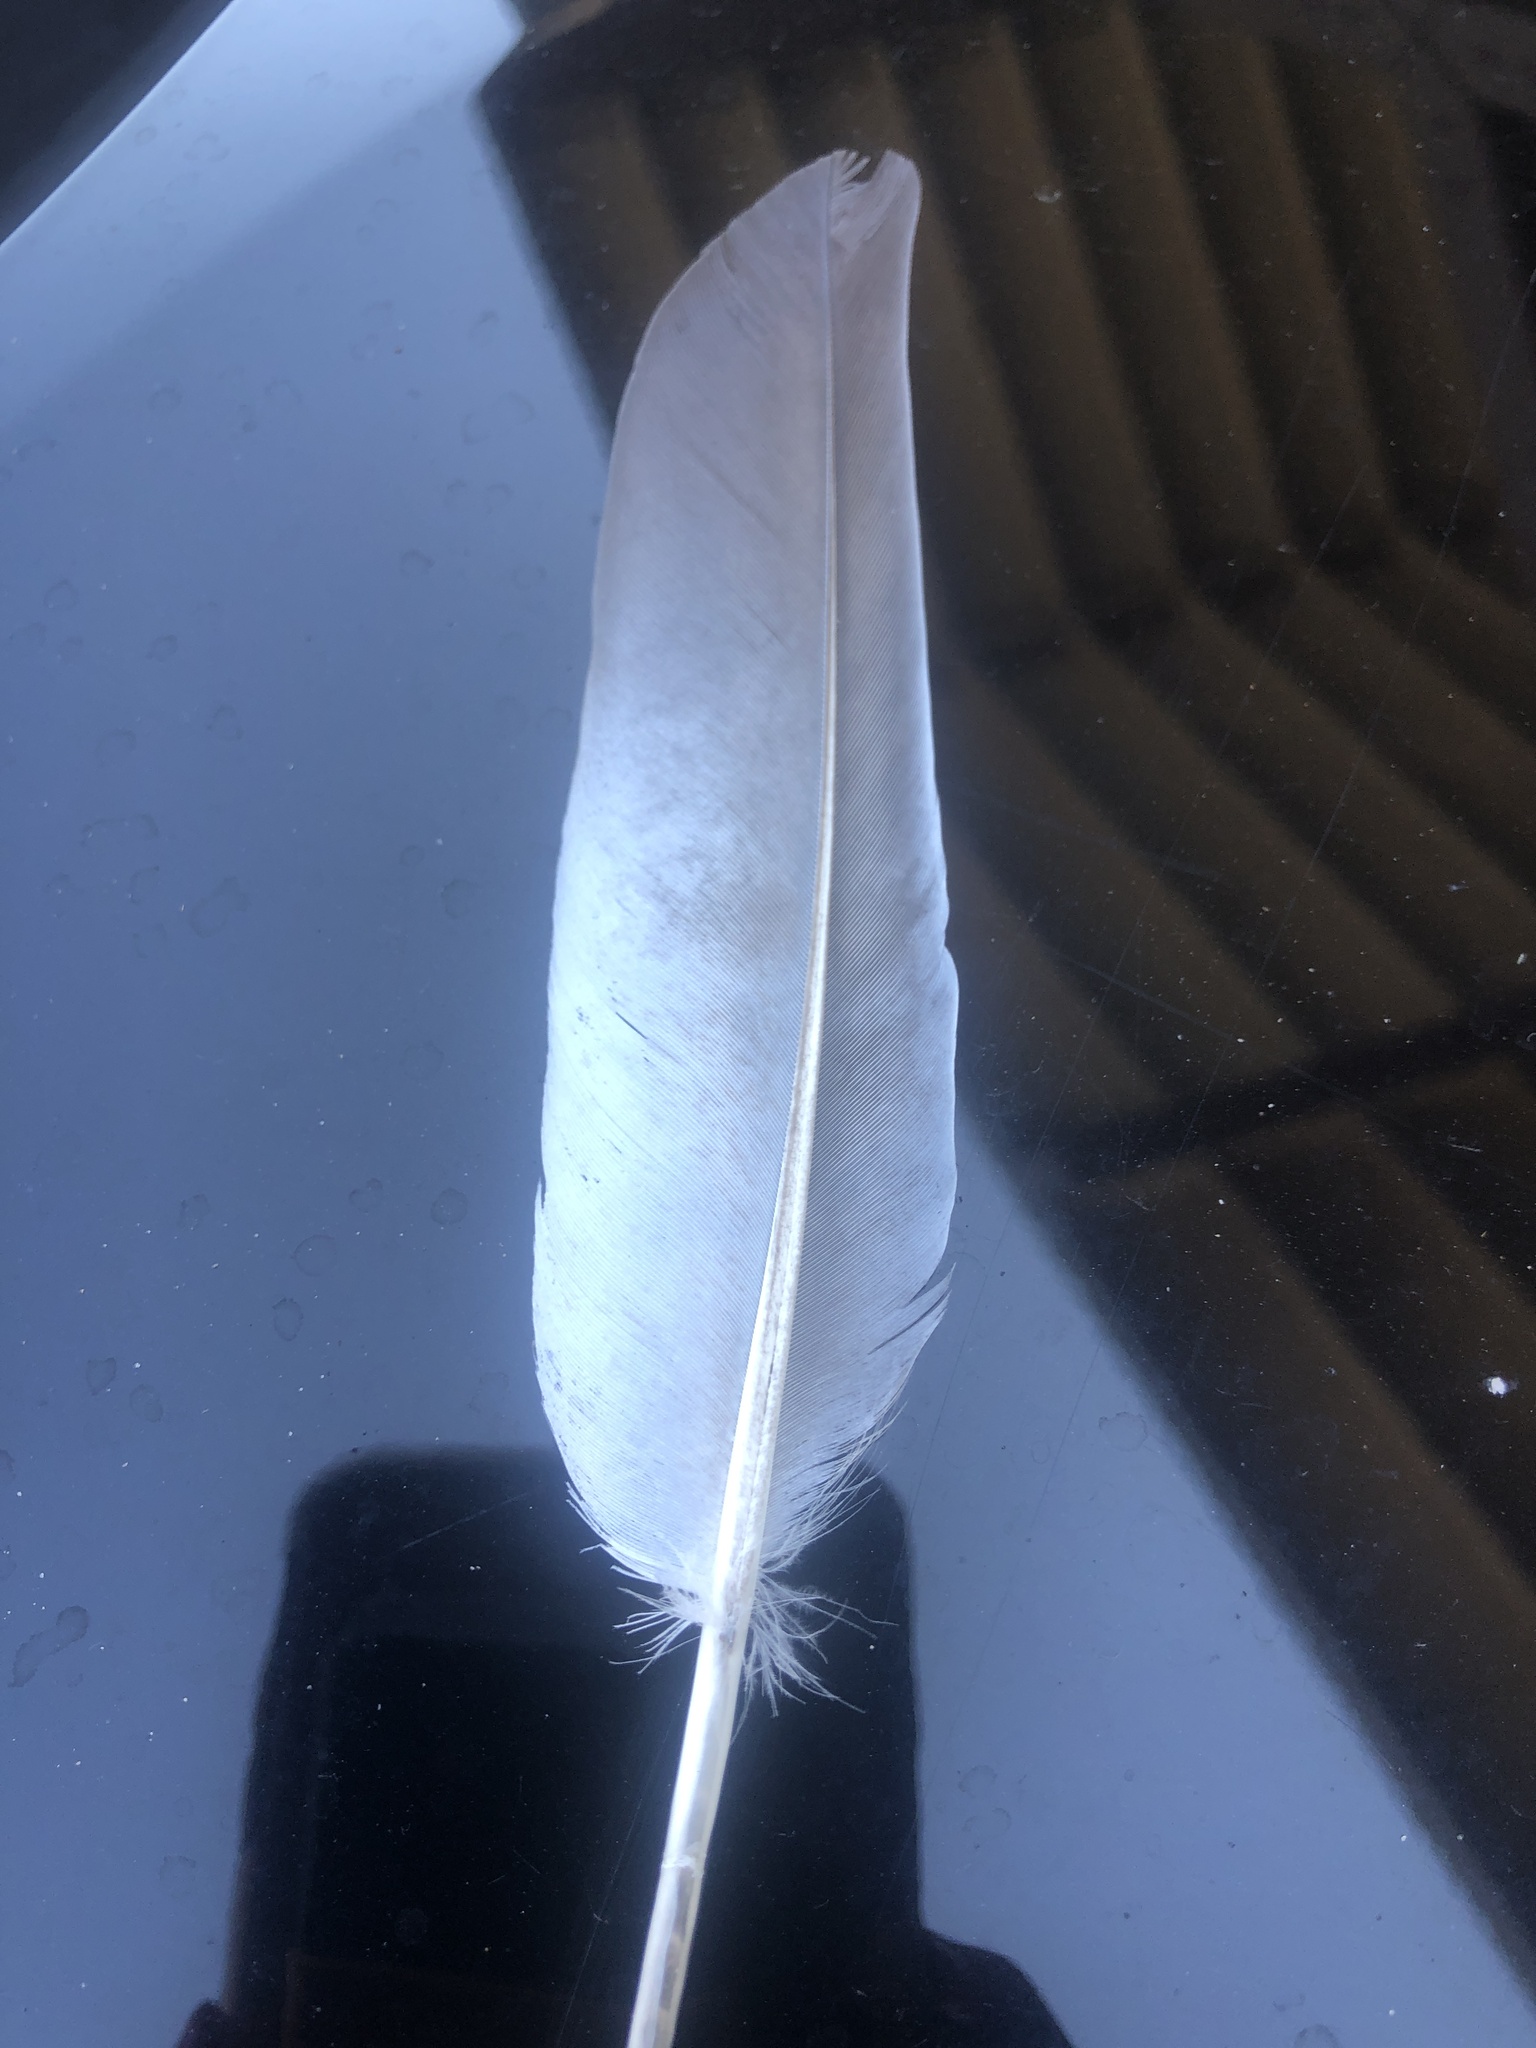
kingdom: Animalia
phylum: Chordata
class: Aves
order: Columbiformes
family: Columbidae
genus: Columba
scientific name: Columba livia
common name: Rock pigeon
